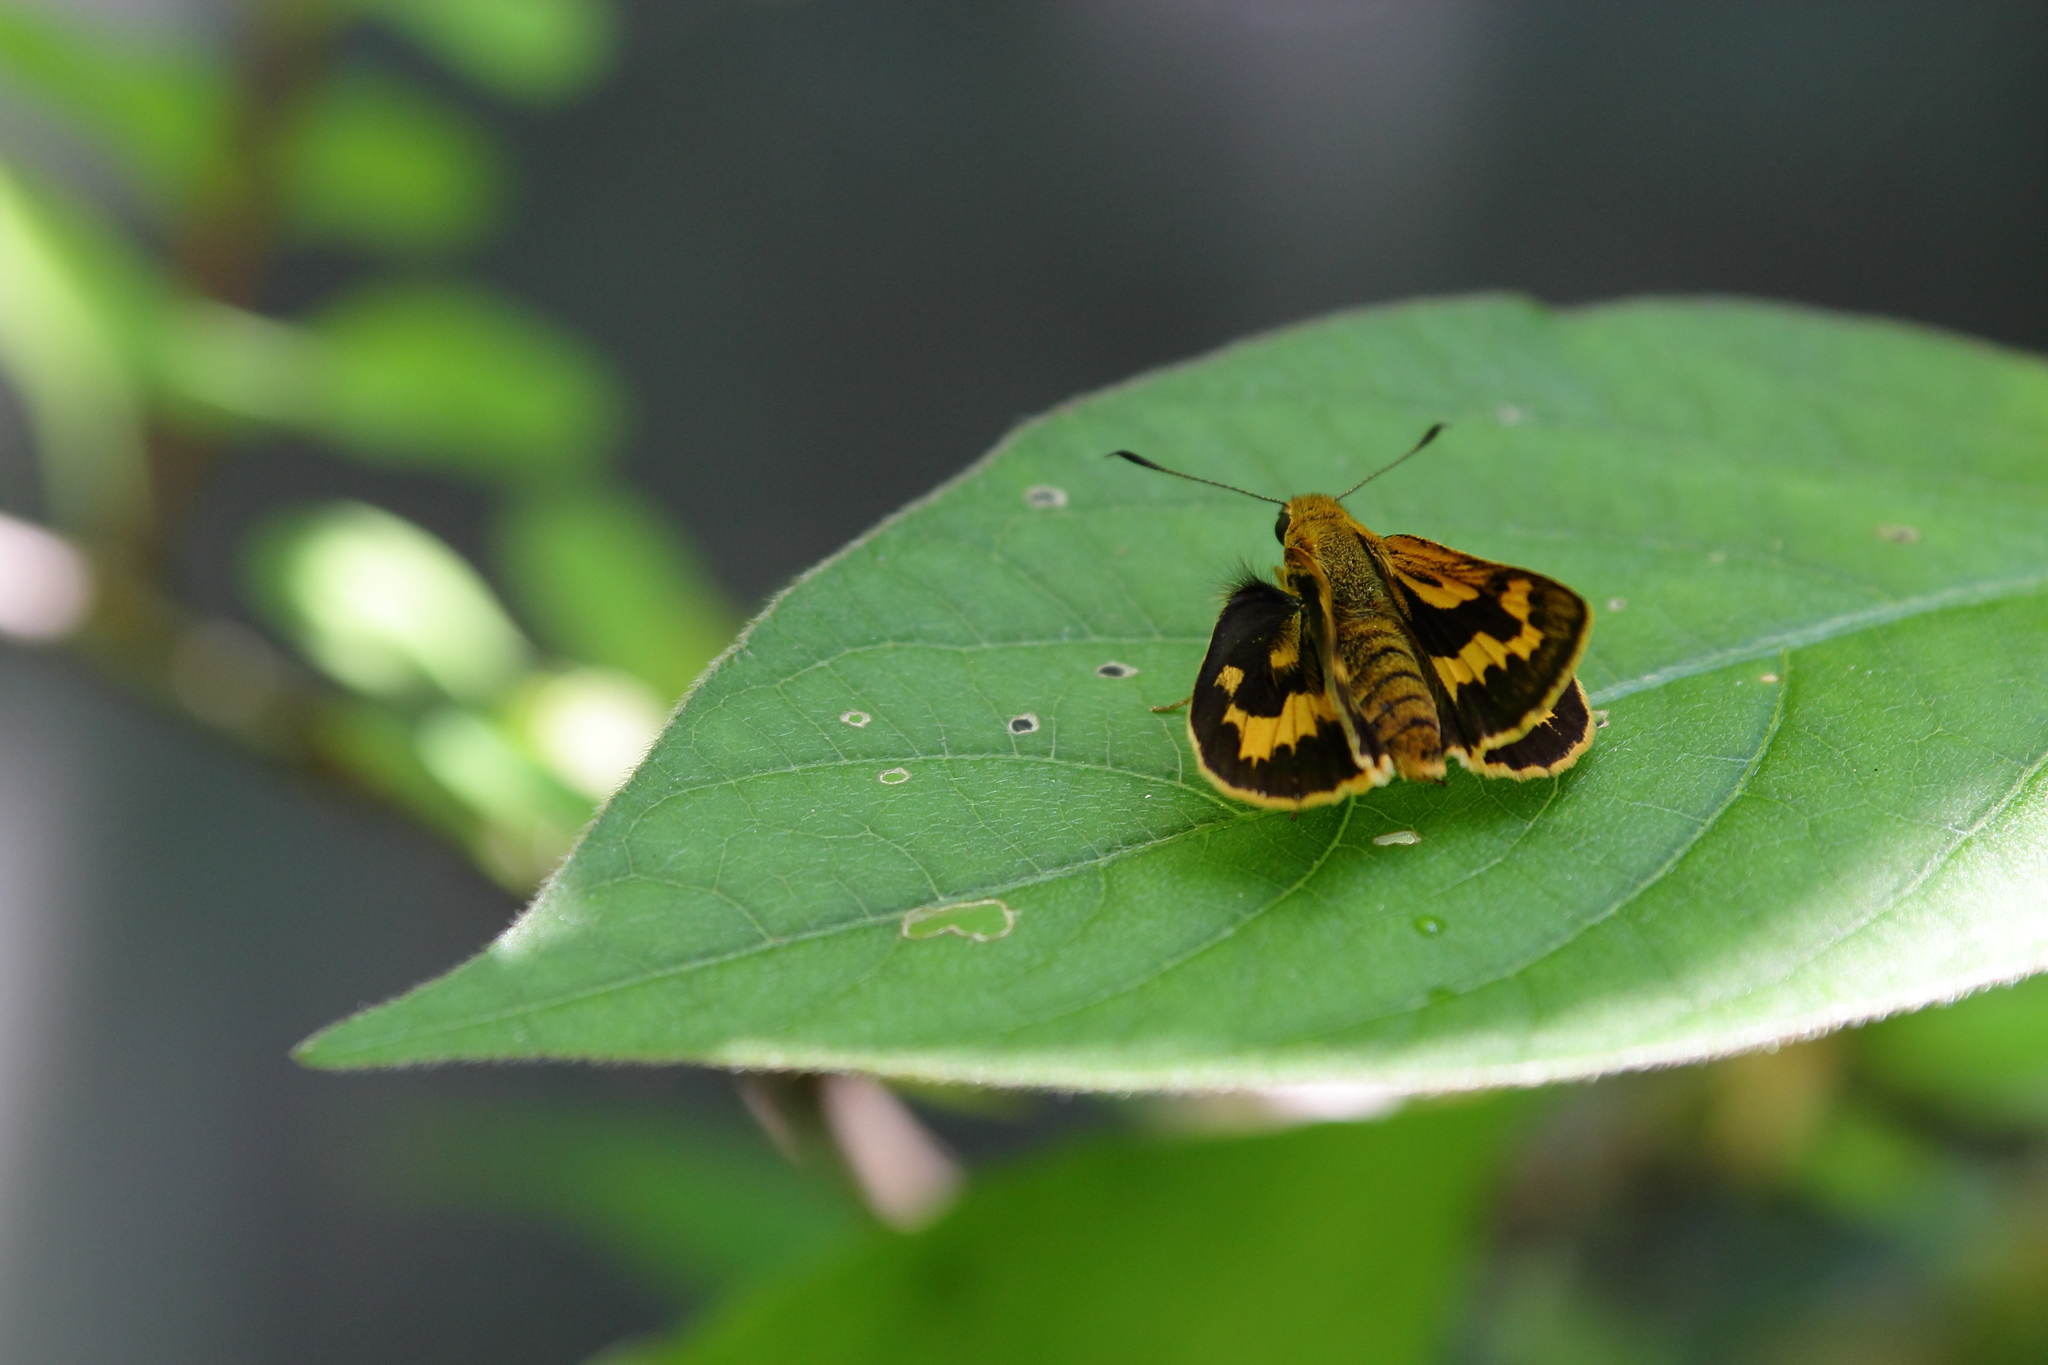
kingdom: Animalia
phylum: Arthropoda
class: Insecta
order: Lepidoptera
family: Hesperiidae
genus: Potanthus
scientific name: Potanthus flava
